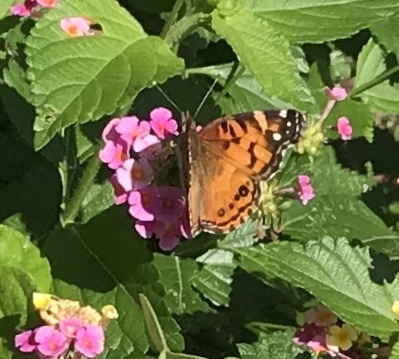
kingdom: Animalia
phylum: Arthropoda
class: Insecta
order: Lepidoptera
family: Nymphalidae
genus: Vanessa
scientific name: Vanessa virginiensis
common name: American lady
